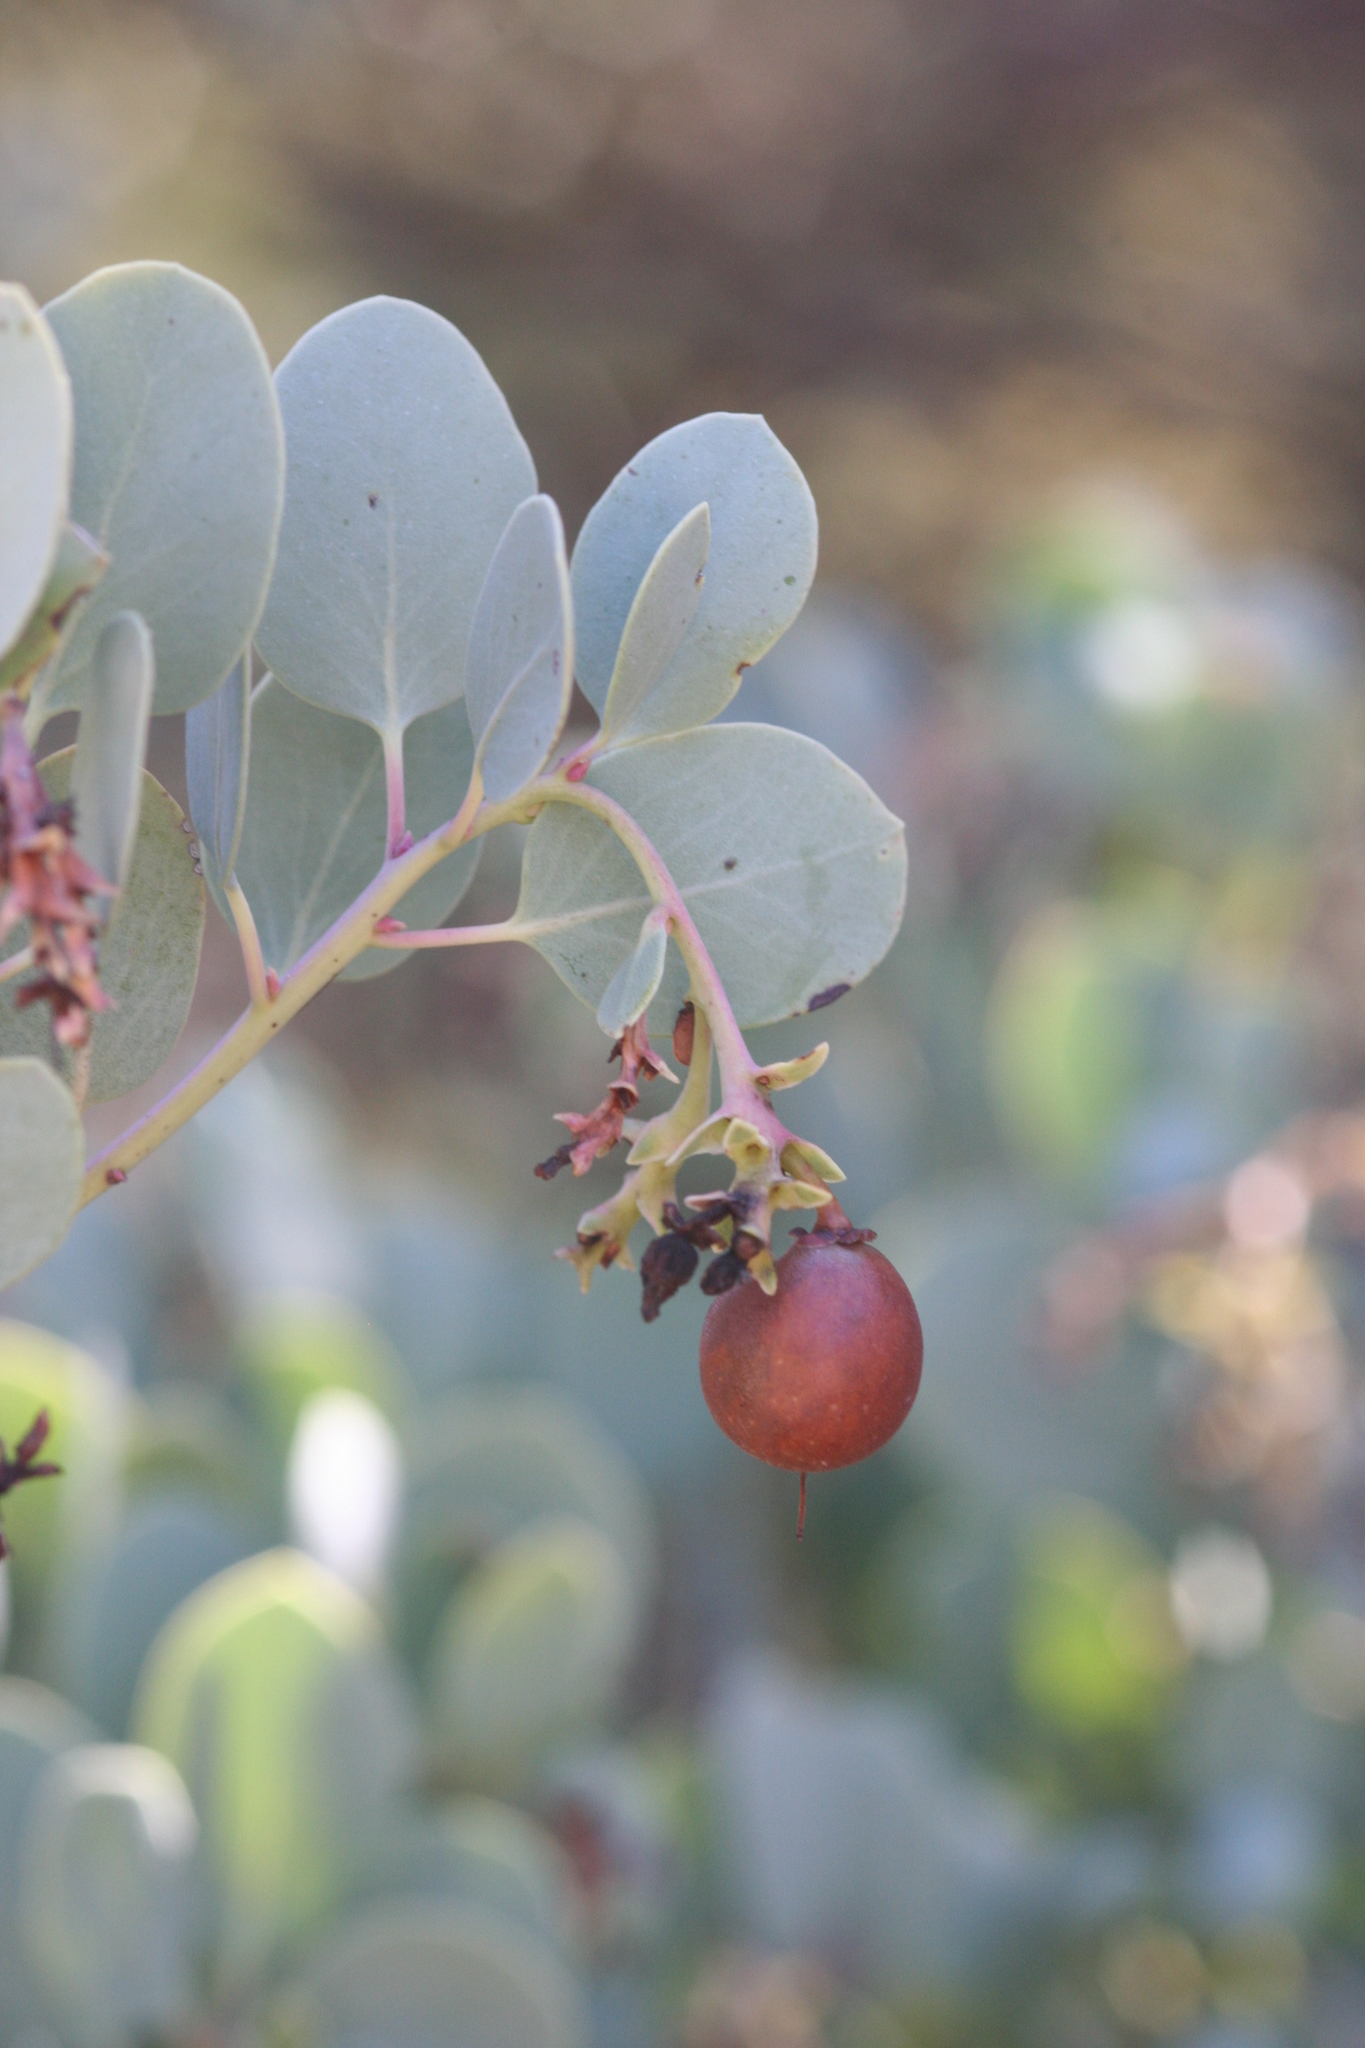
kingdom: Plantae
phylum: Tracheophyta
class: Magnoliopsida
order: Ericales
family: Ericaceae
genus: Arctostaphylos
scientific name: Arctostaphylos glauca
